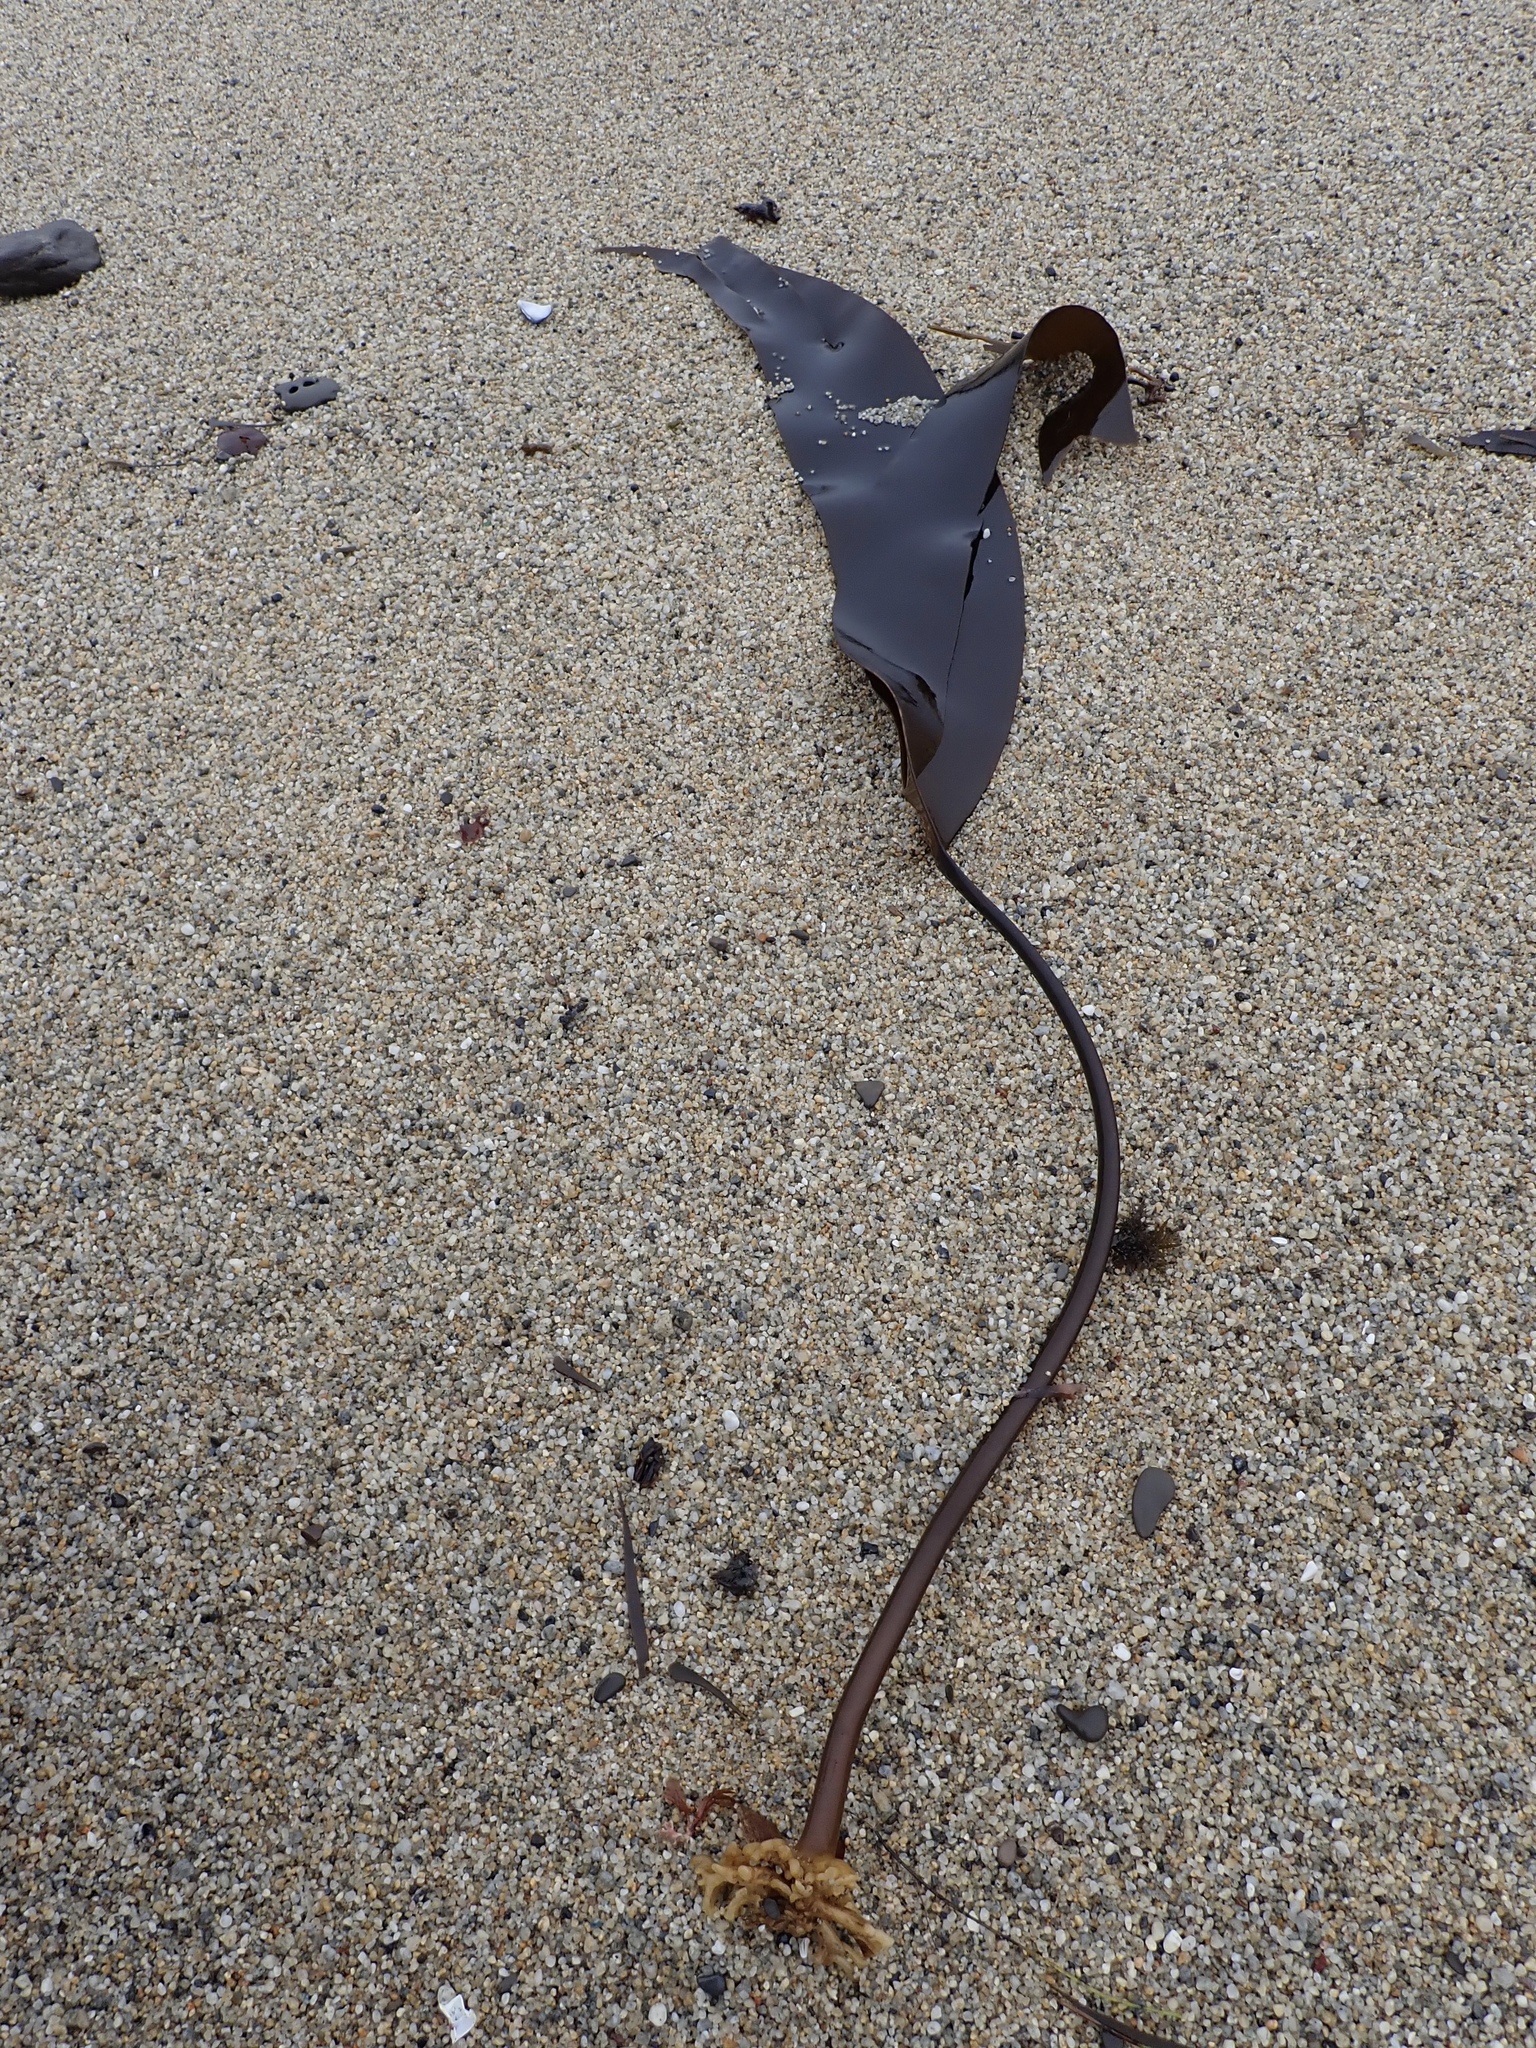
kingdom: Chromista
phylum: Ochrophyta
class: Phaeophyceae
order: Laminariales
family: Laminariaceae
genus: Laminaria
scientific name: Laminaria setchellii
